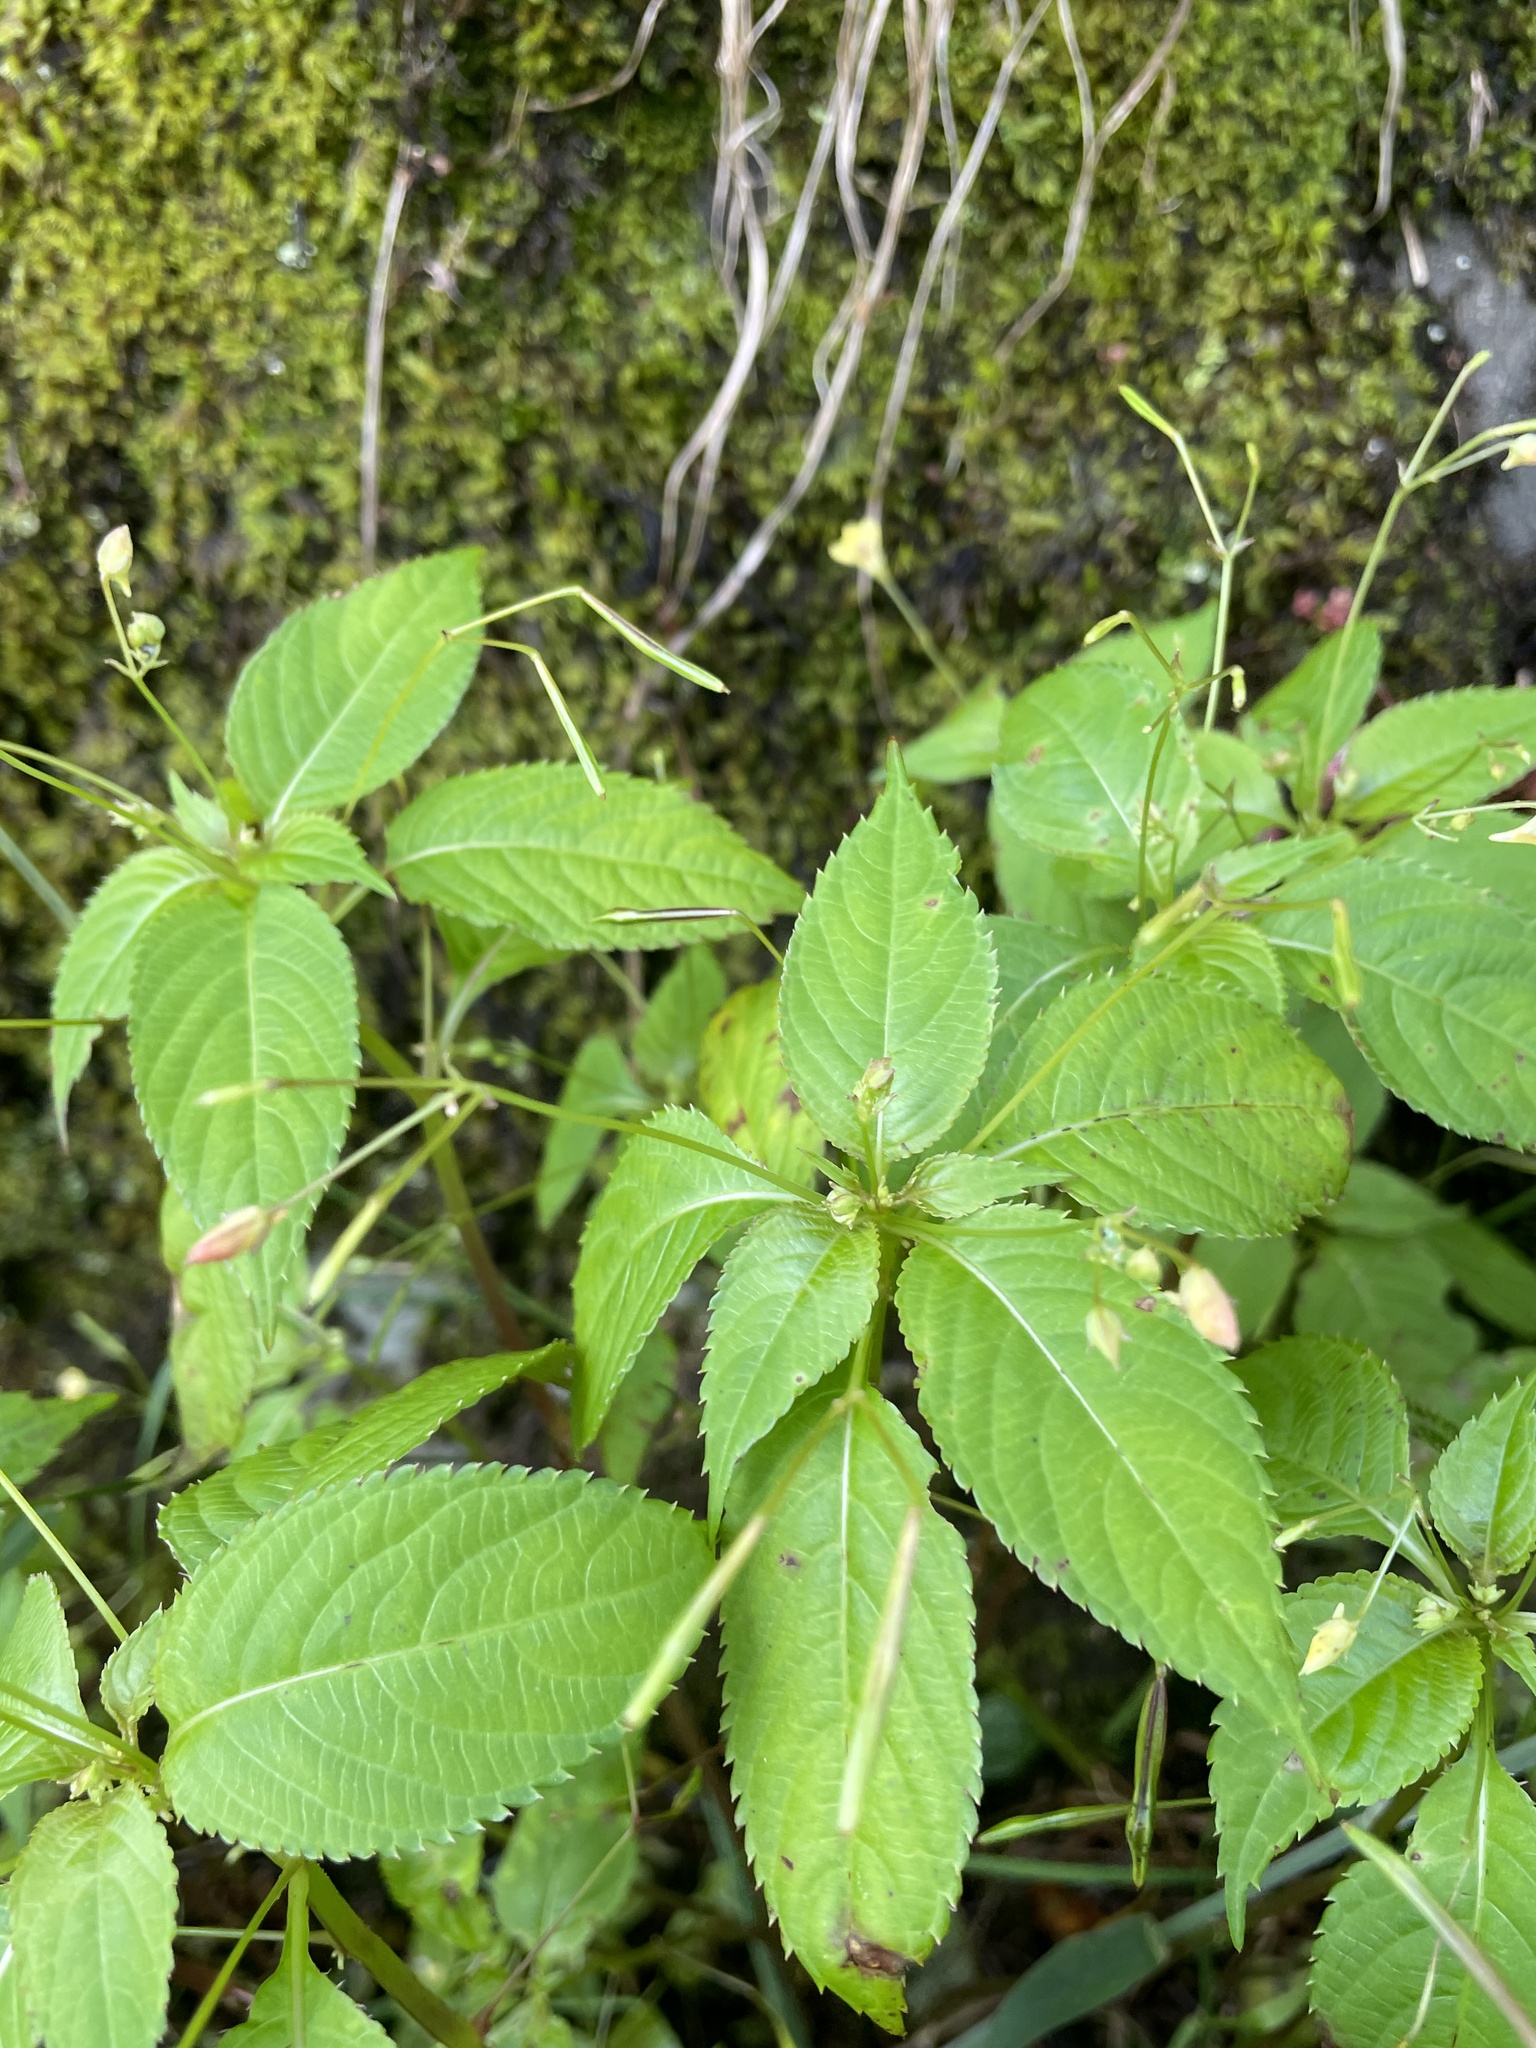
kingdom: Plantae
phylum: Tracheophyta
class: Magnoliopsida
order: Ericales
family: Balsaminaceae
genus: Impatiens
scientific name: Impatiens parviflora
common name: Small balsam
